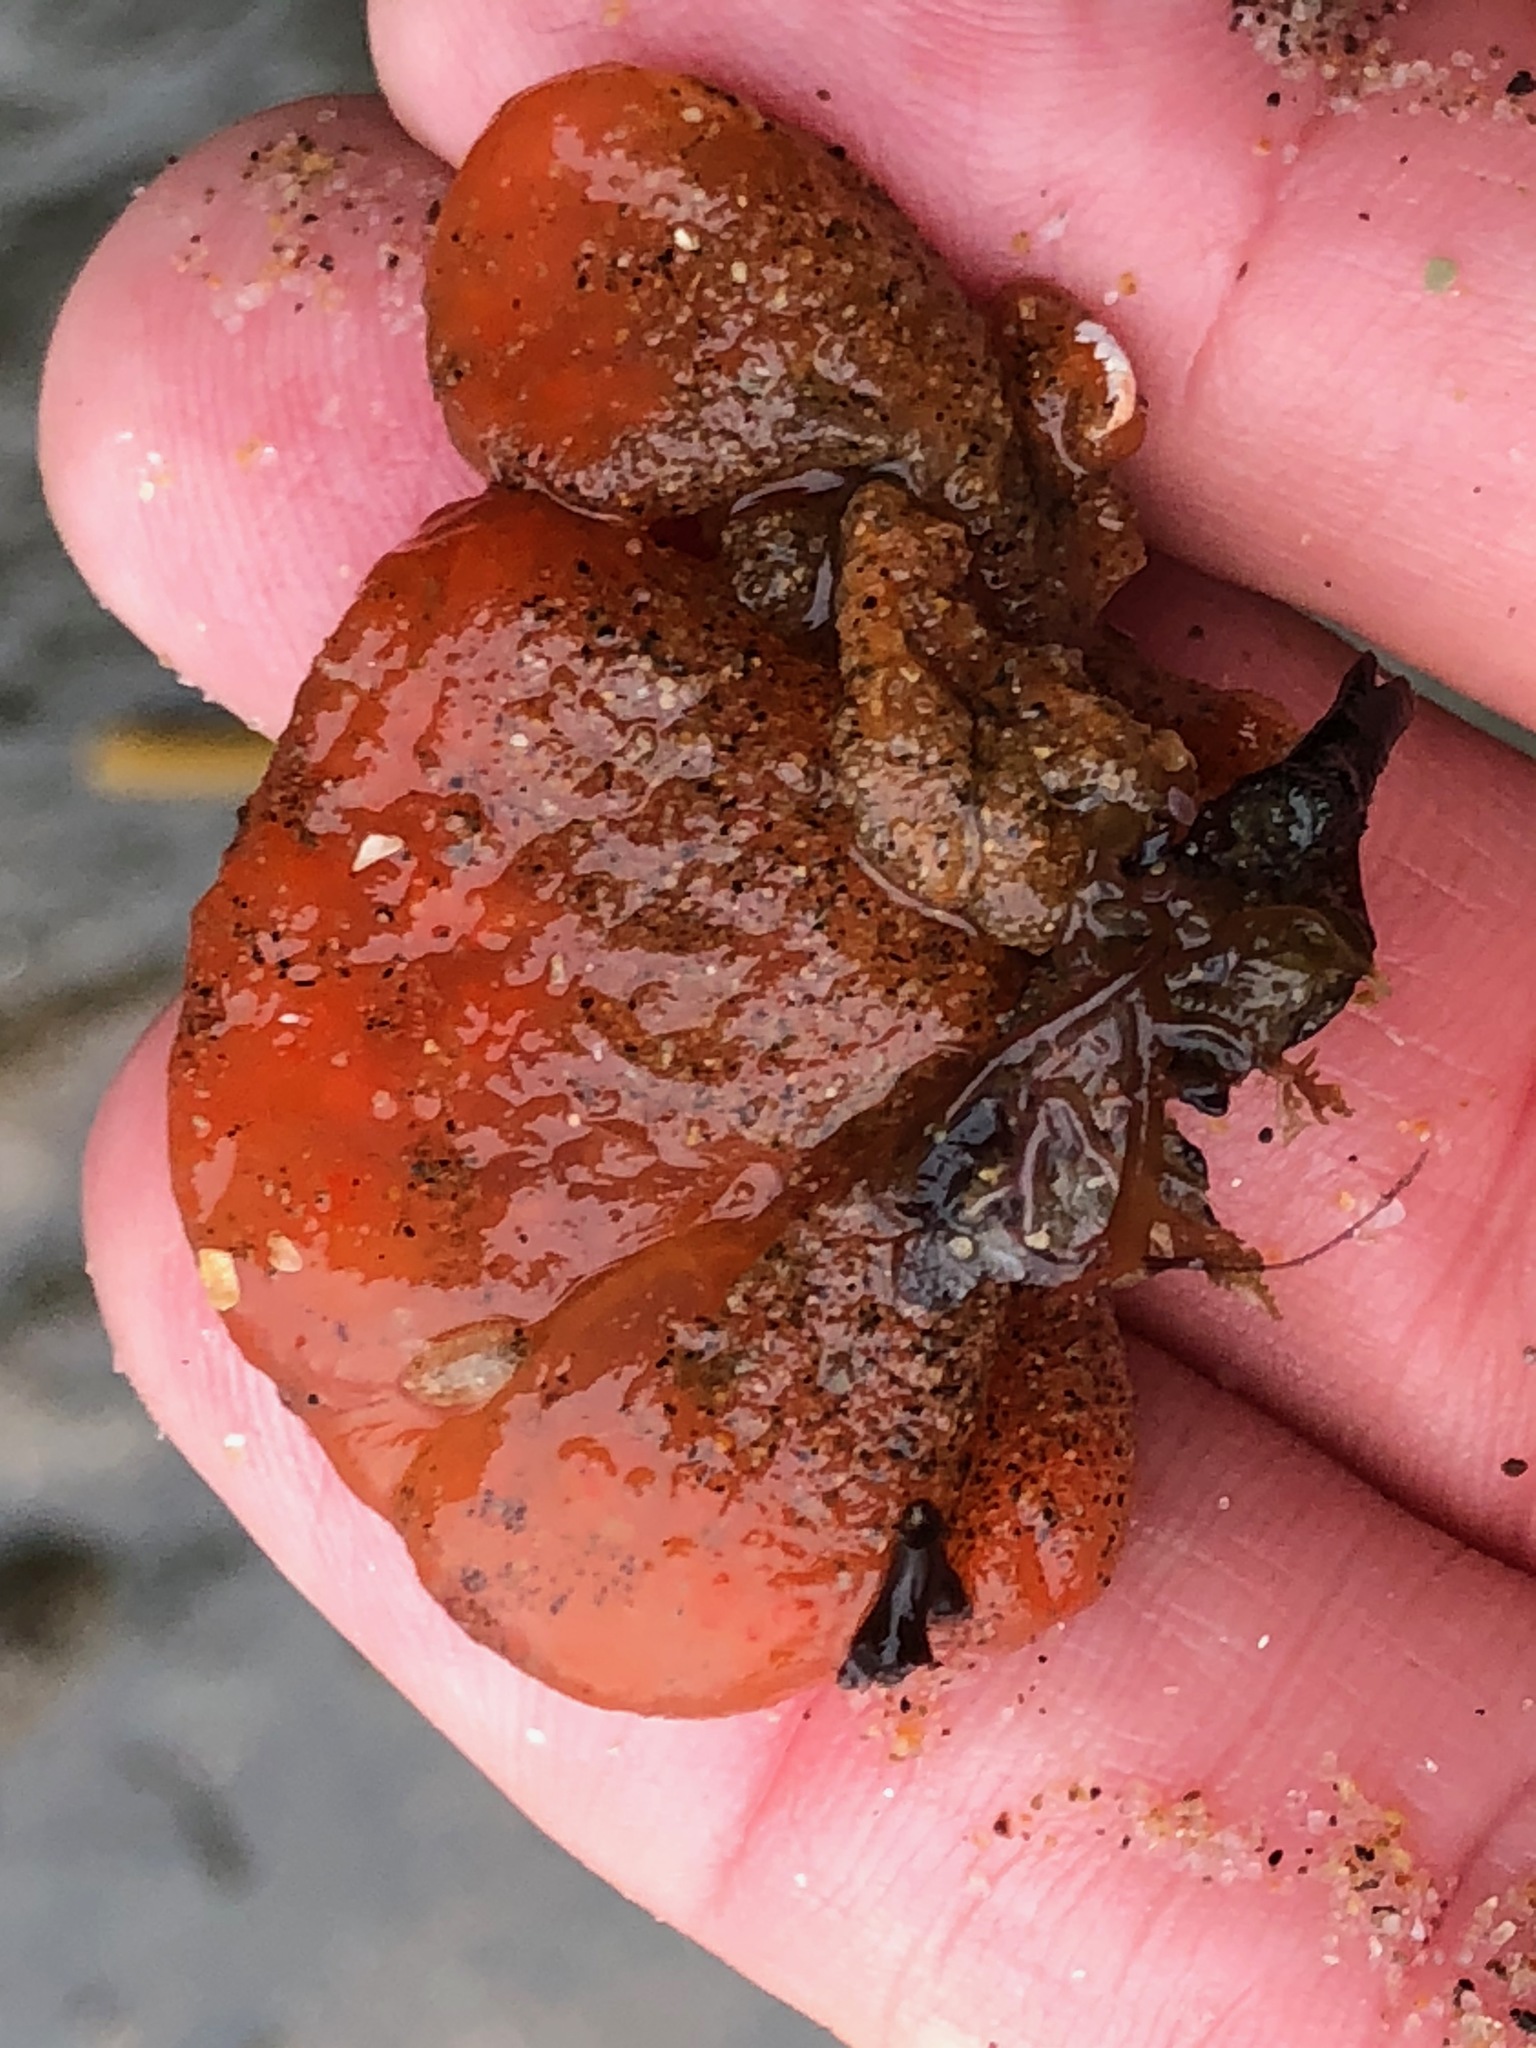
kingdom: Animalia
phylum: Chordata
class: Ascidiacea
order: Aplousobranchia
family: Polyclinidae
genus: Aplidium
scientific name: Aplidium californicum
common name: Sea pork
